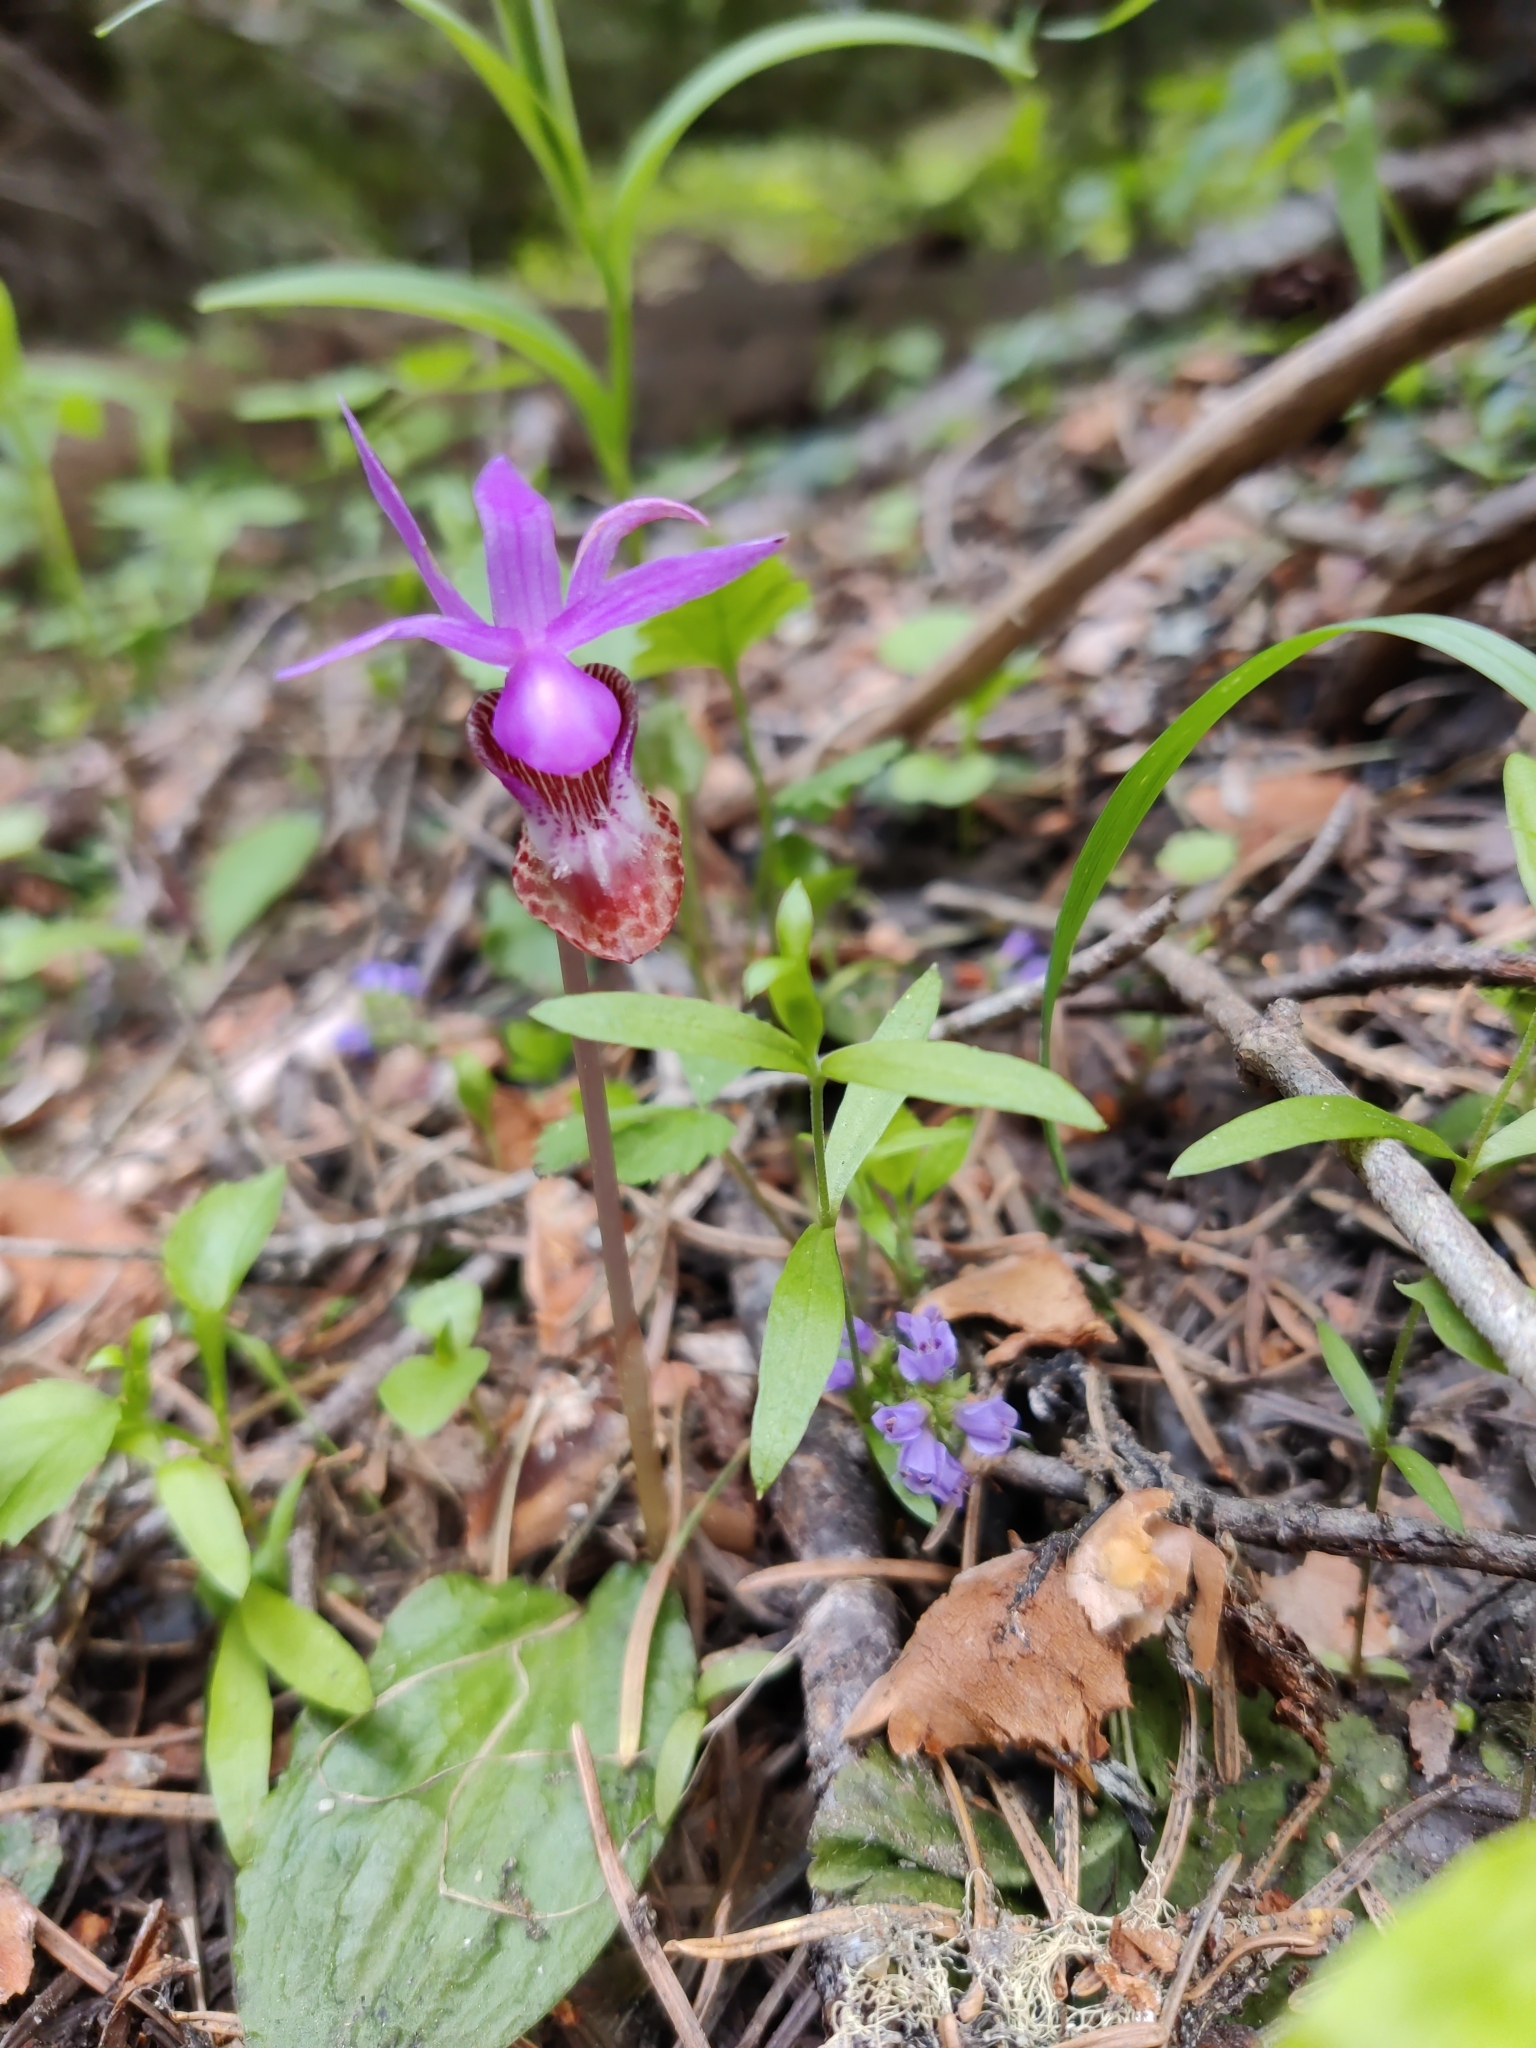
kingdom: Plantae
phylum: Tracheophyta
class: Liliopsida
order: Asparagales
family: Orchidaceae
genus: Calypso
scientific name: Calypso bulbosa
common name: Calypso
